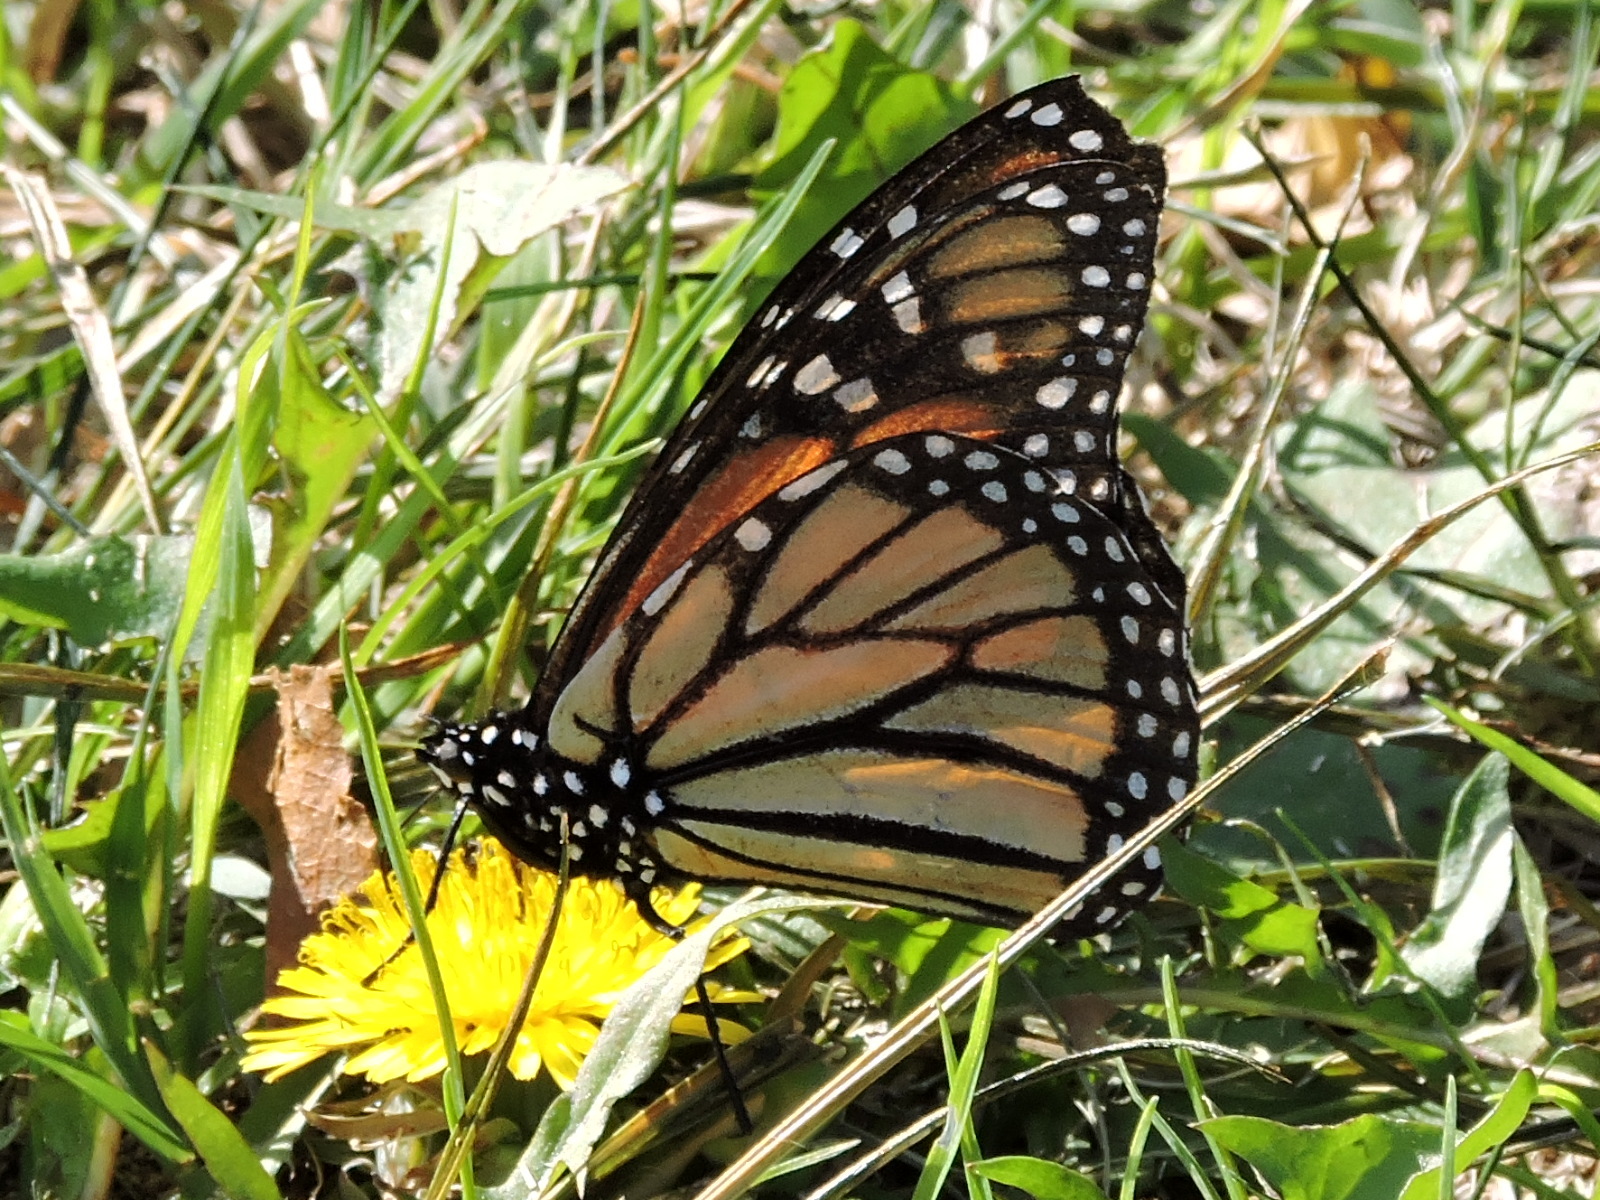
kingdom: Animalia
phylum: Arthropoda
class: Insecta
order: Lepidoptera
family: Nymphalidae
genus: Danaus
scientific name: Danaus plexippus
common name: Monarch
